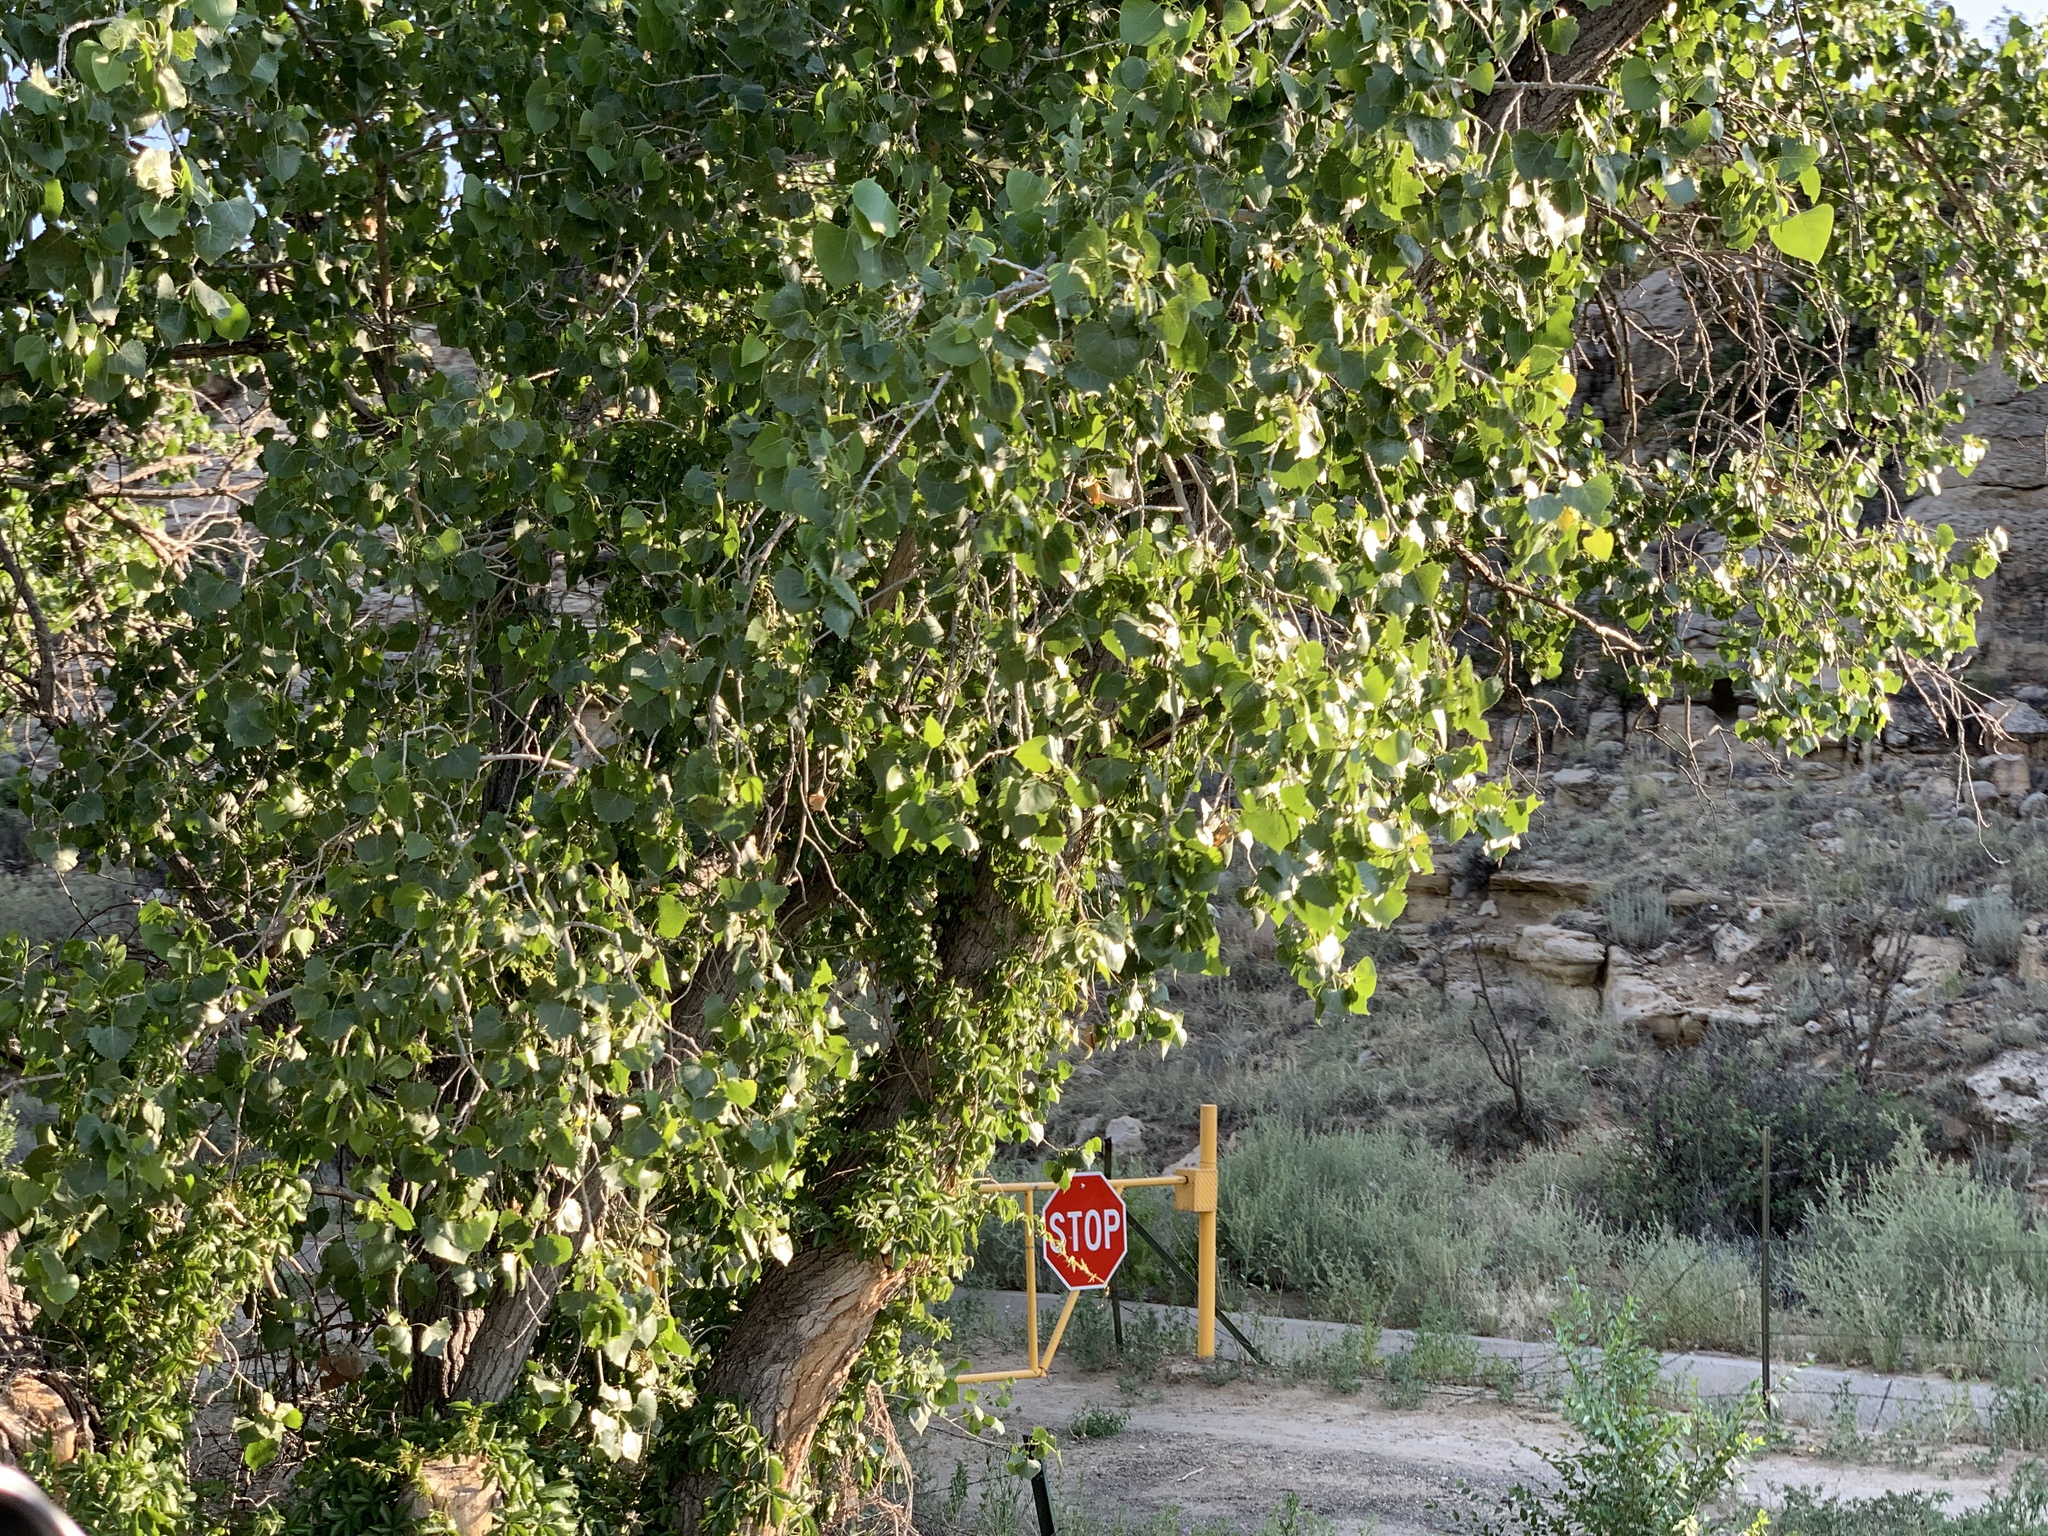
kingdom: Plantae
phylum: Tracheophyta
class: Magnoliopsida
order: Malpighiales
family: Salicaceae
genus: Populus
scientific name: Populus fremontii
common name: Fremont's cottonwood
